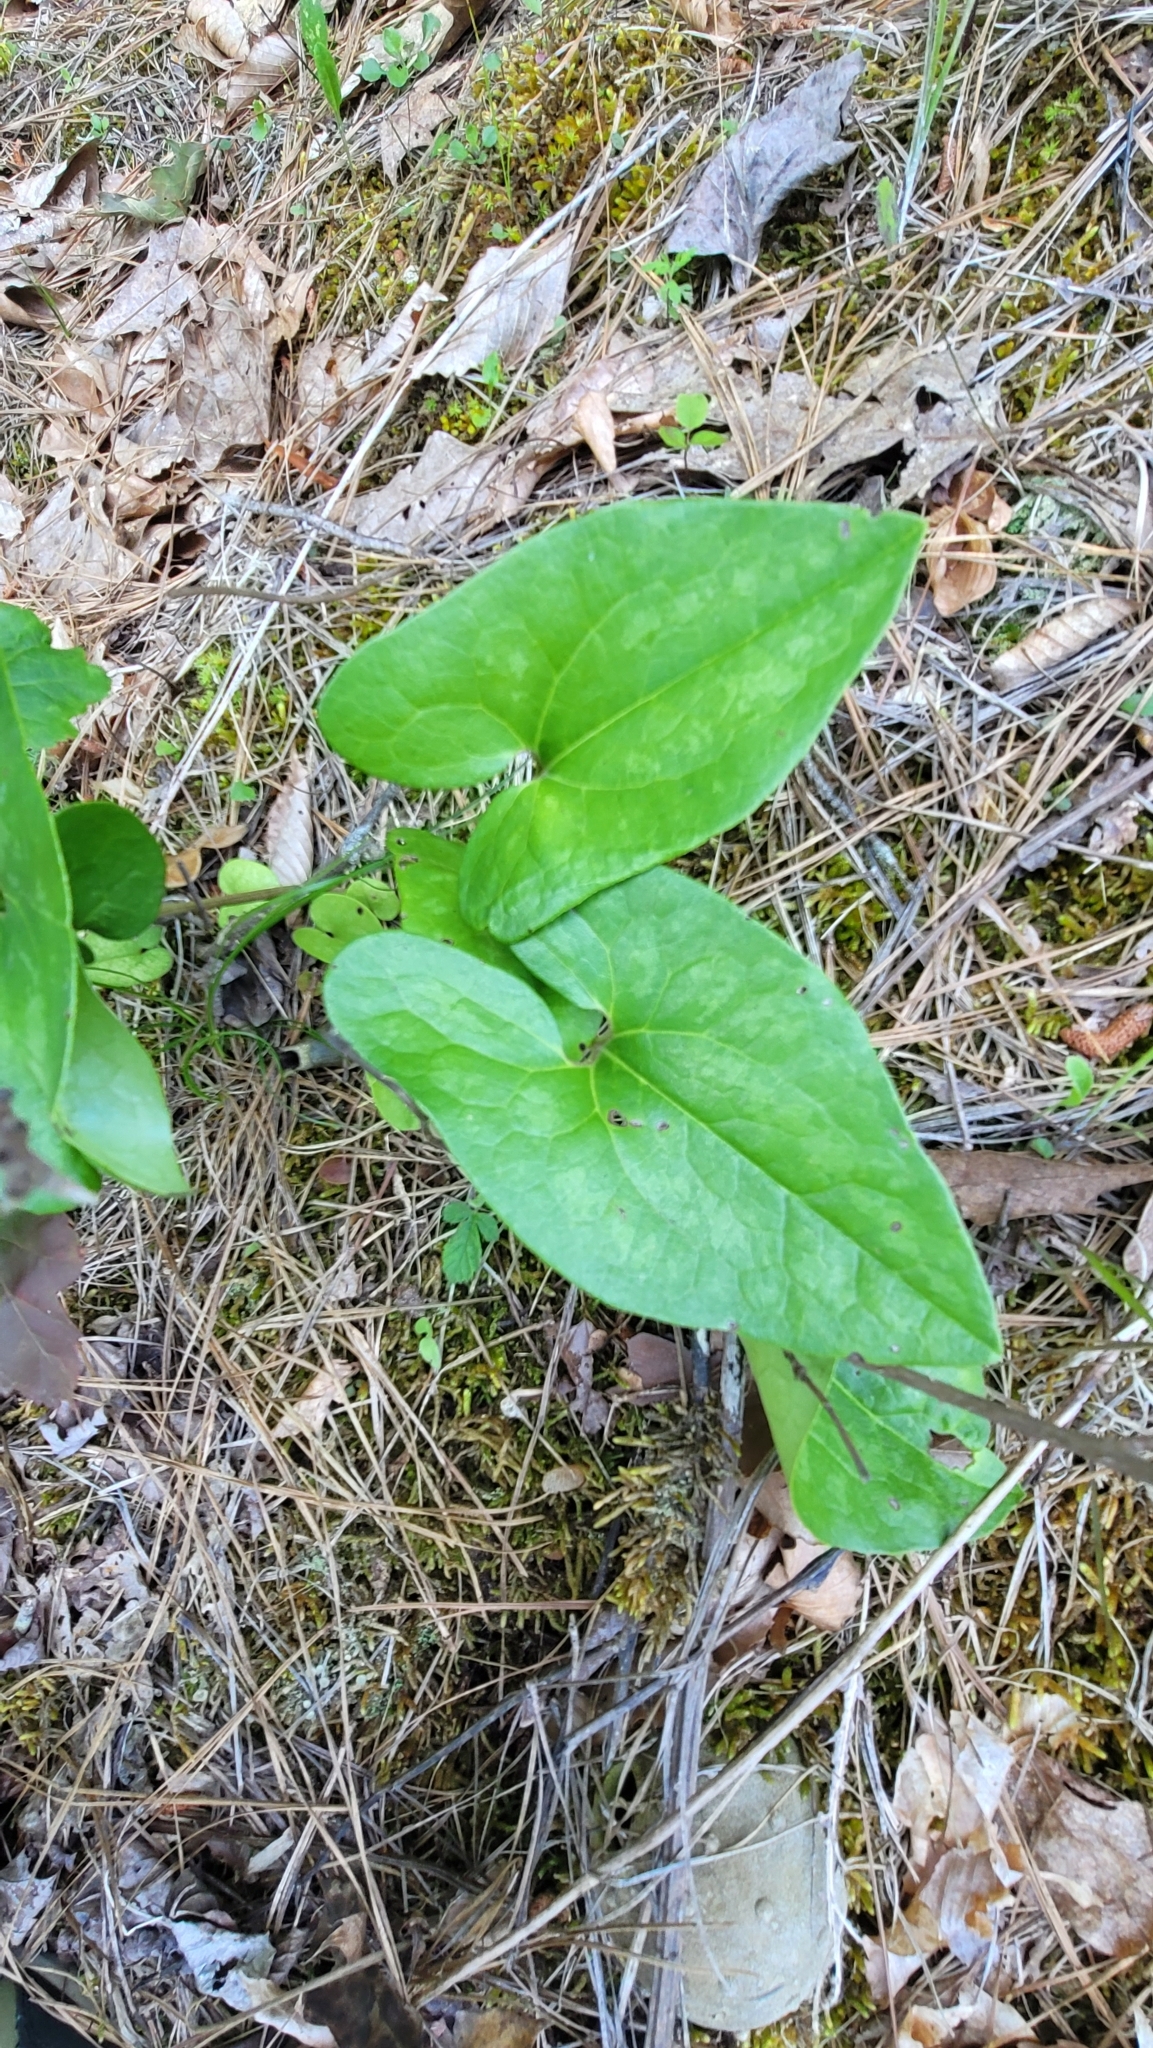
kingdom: Plantae
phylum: Tracheophyta
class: Magnoliopsida
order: Piperales
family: Aristolochiaceae
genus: Hexastylis
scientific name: Hexastylis arifolia
